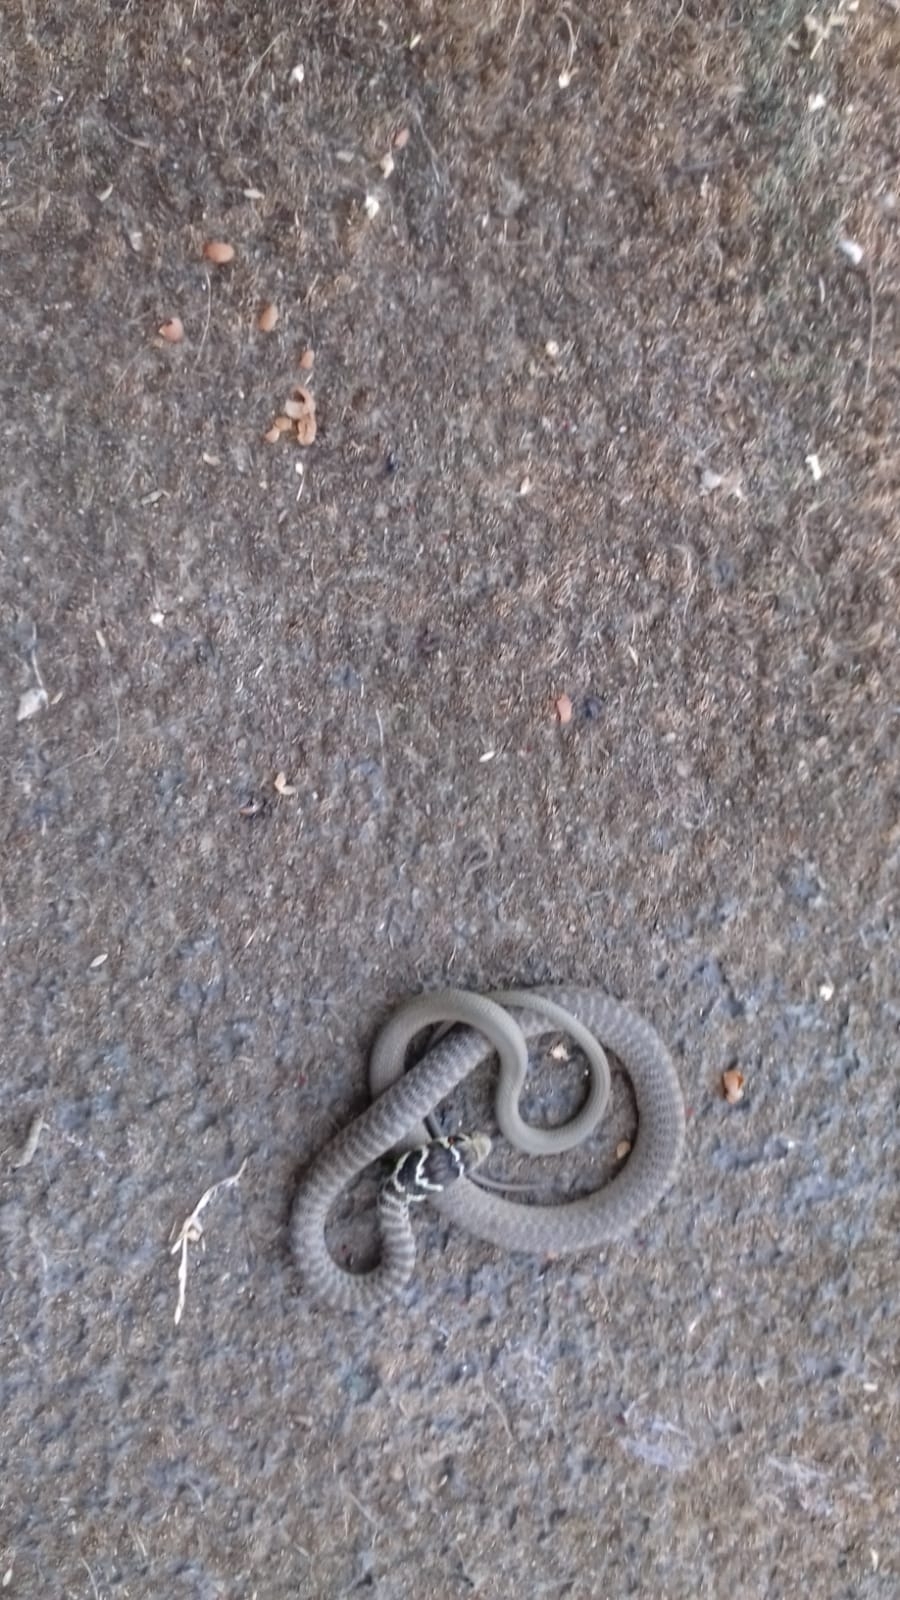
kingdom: Animalia
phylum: Chordata
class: Squamata
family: Colubridae
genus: Hierophis
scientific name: Hierophis viridiflavus
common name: Green whip snake
